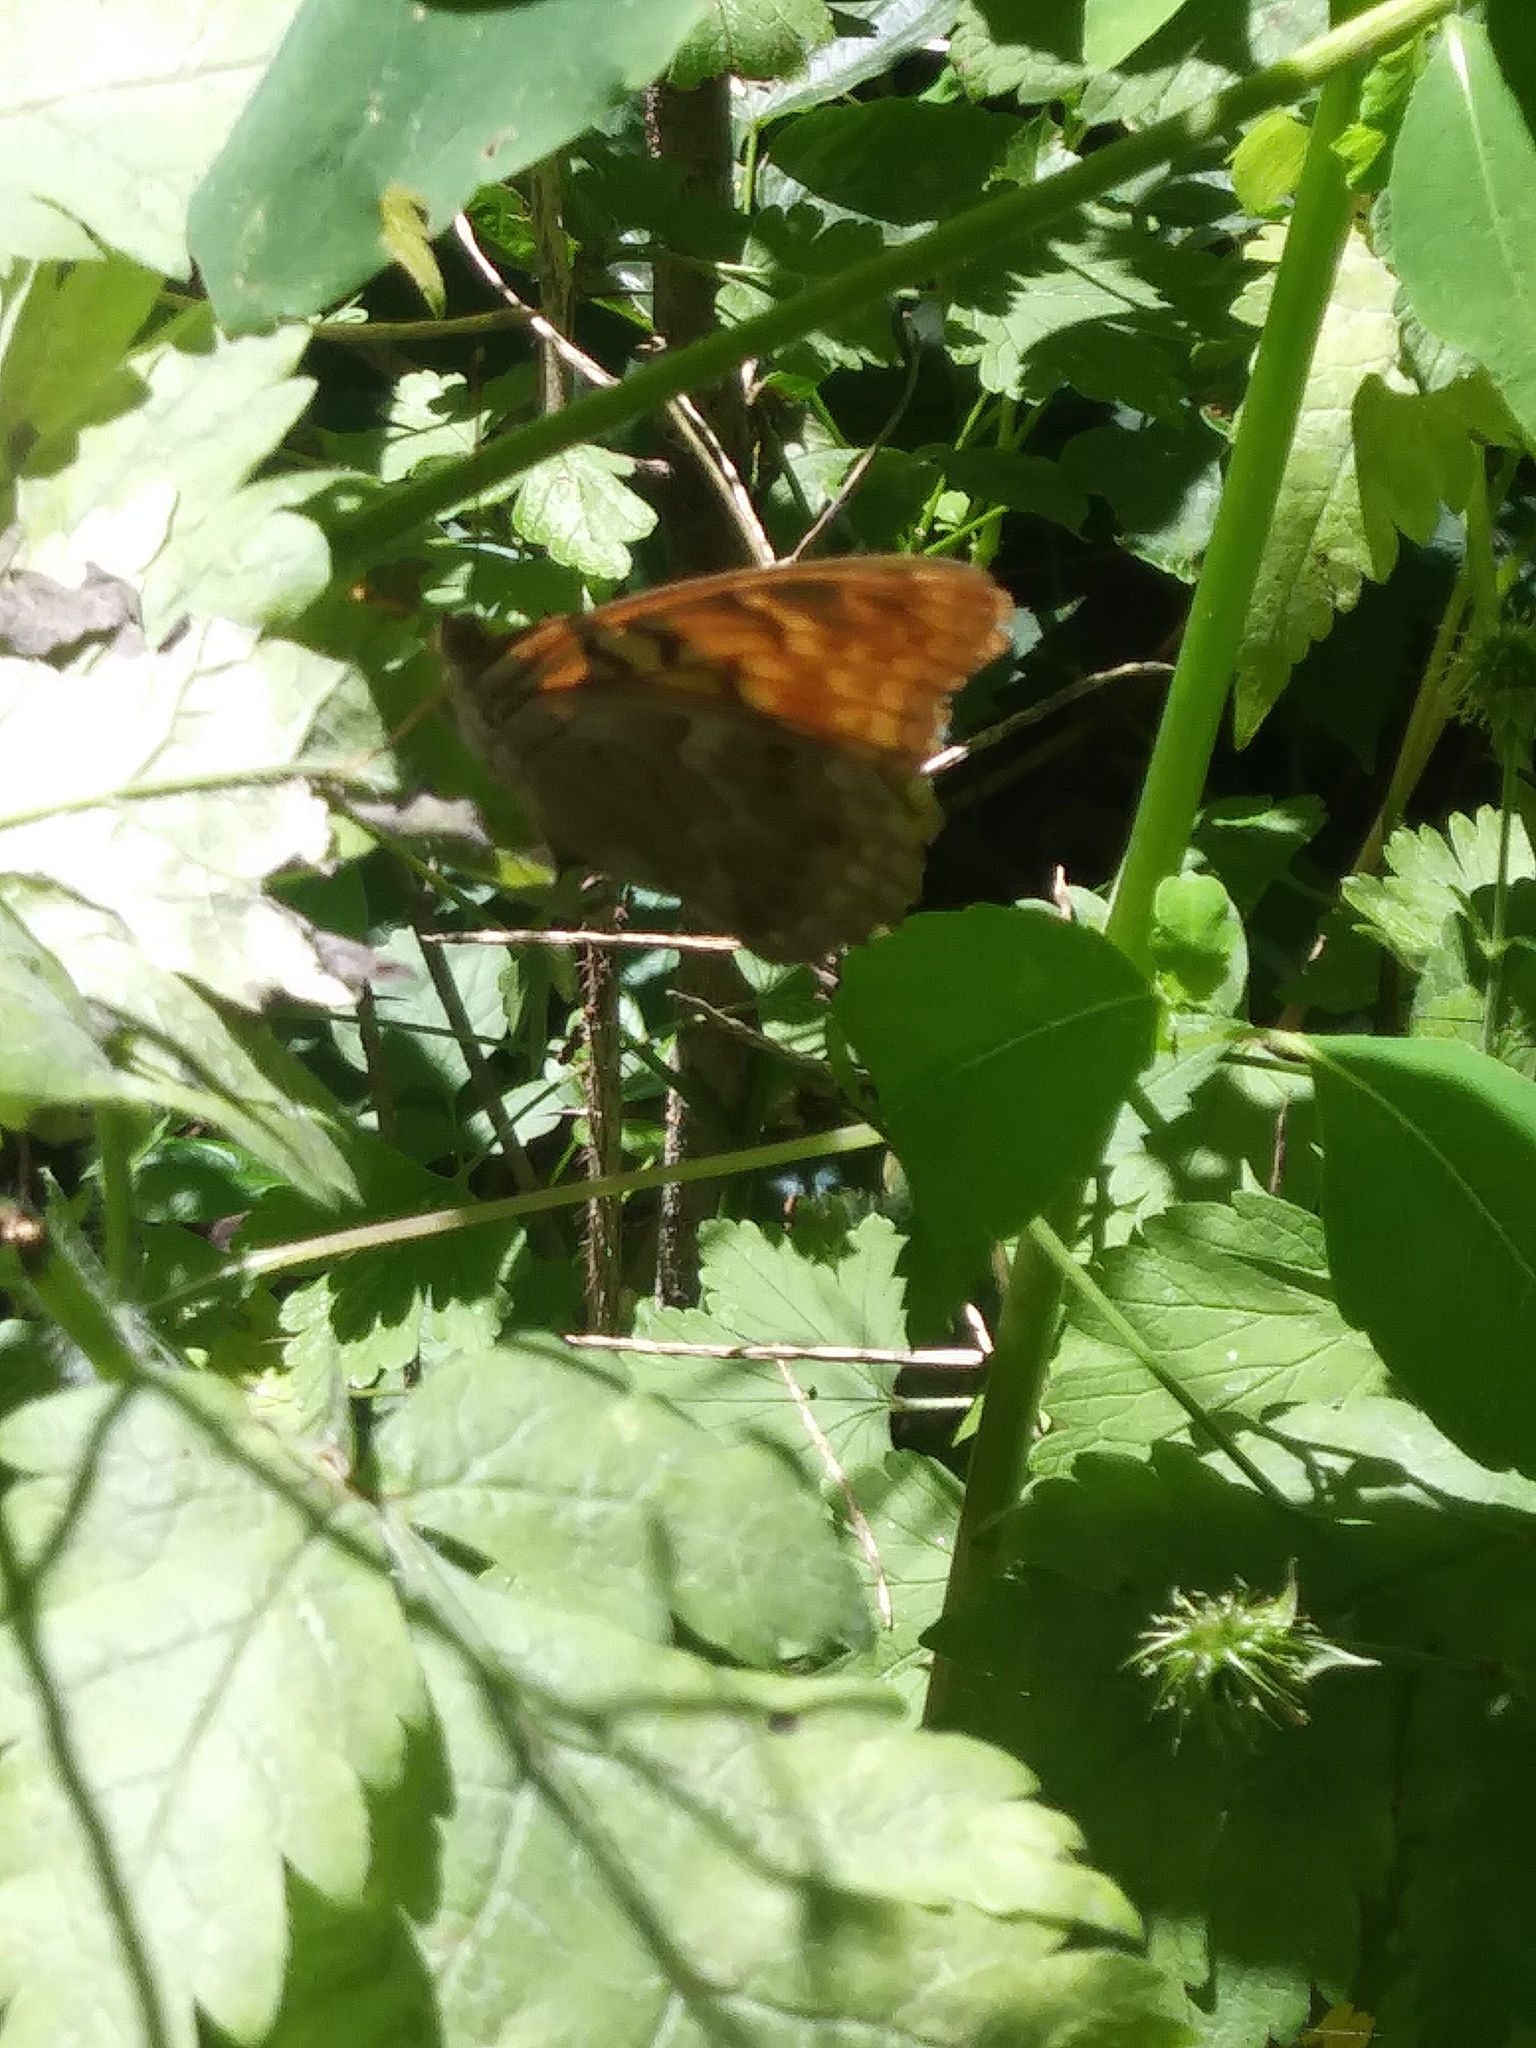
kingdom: Animalia
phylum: Arthropoda
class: Insecta
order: Lepidoptera
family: Nymphalidae
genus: Asterocampa
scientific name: Asterocampa clyton
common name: Tawny emperor
